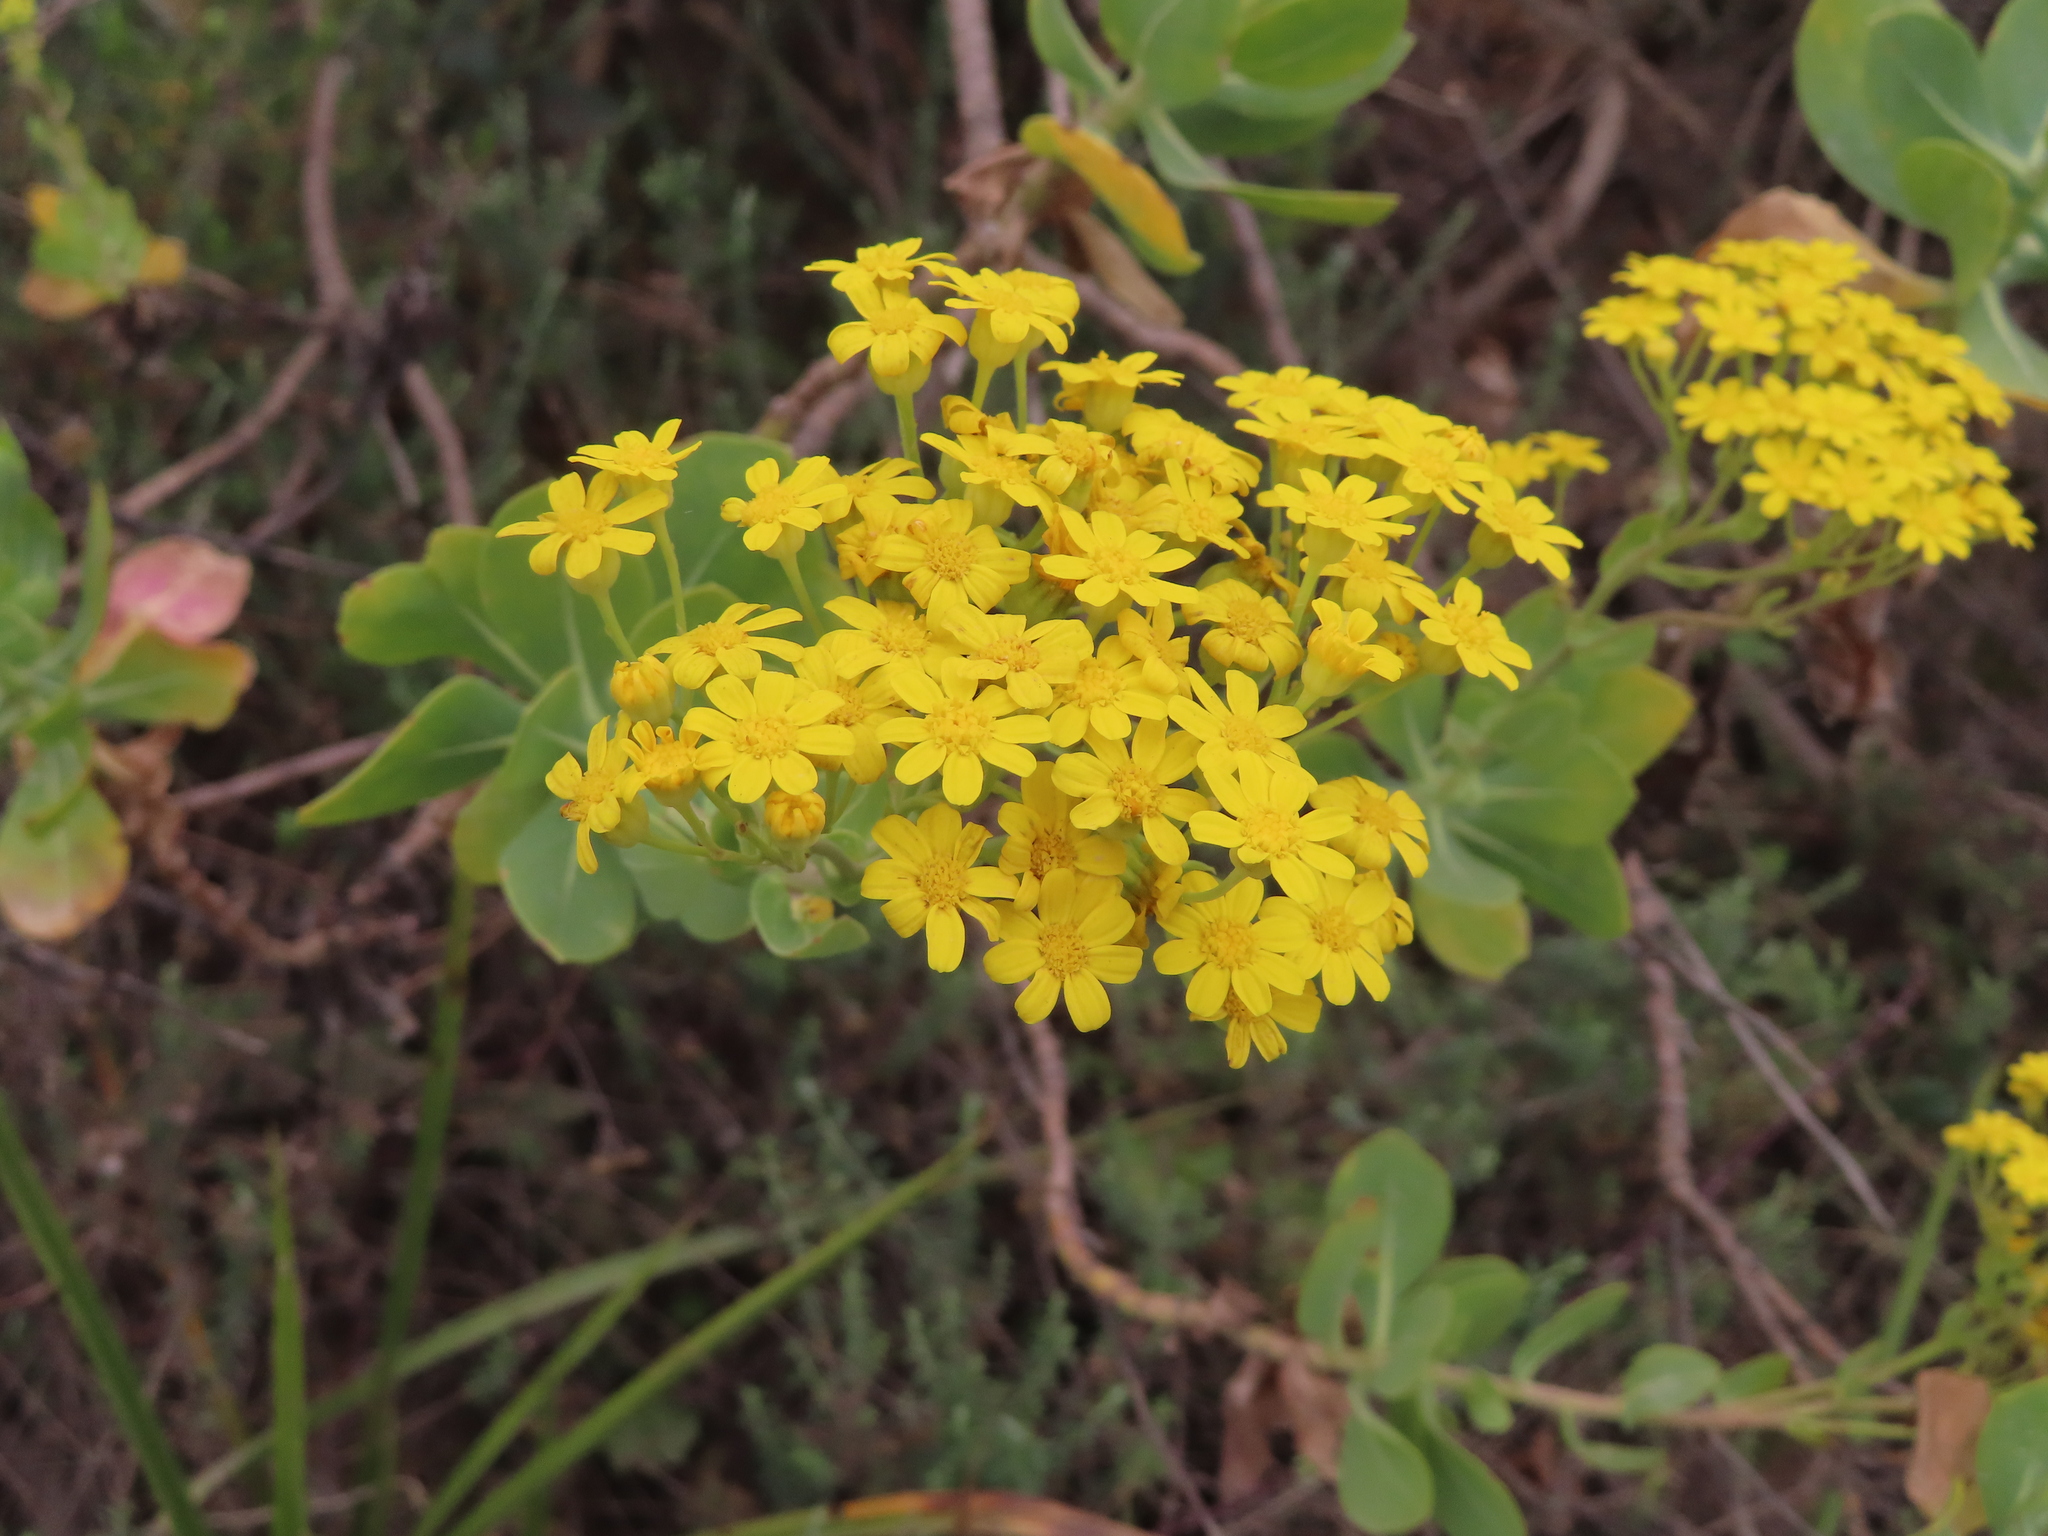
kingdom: Plantae
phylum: Tracheophyta
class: Magnoliopsida
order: Asterales
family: Asteraceae
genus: Othonna
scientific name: Othonna parviflora
